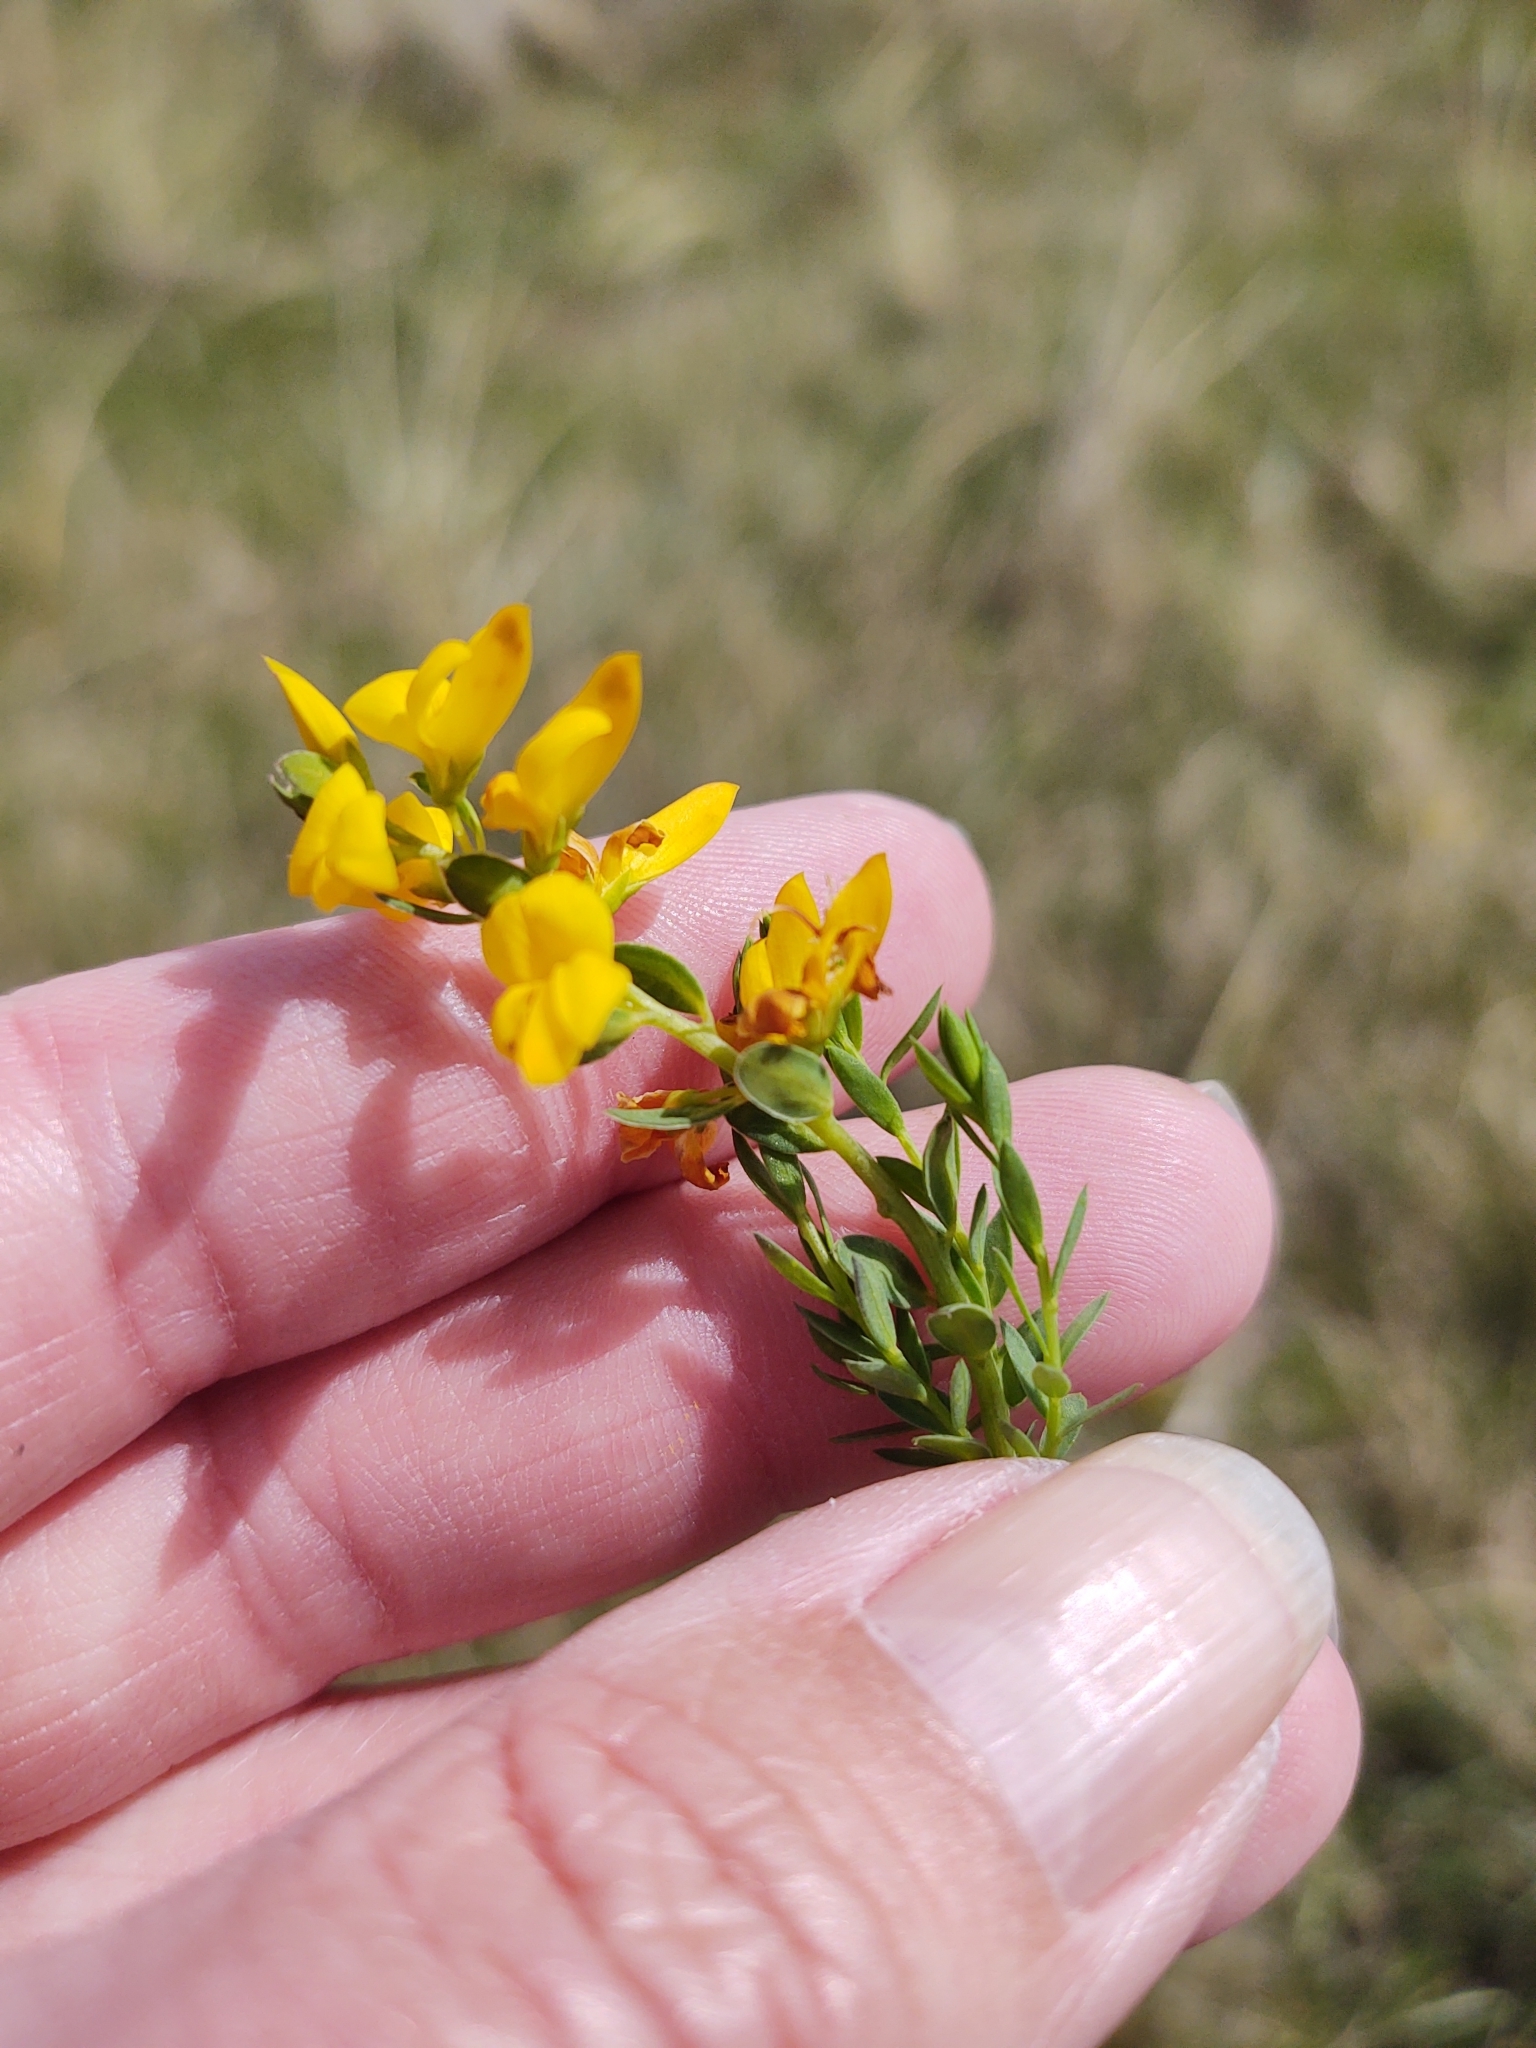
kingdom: Plantae
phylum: Tracheophyta
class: Magnoliopsida
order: Fabales
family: Fabaceae
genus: Genista
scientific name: Genista tinctoria
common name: Dyer's greenweed
